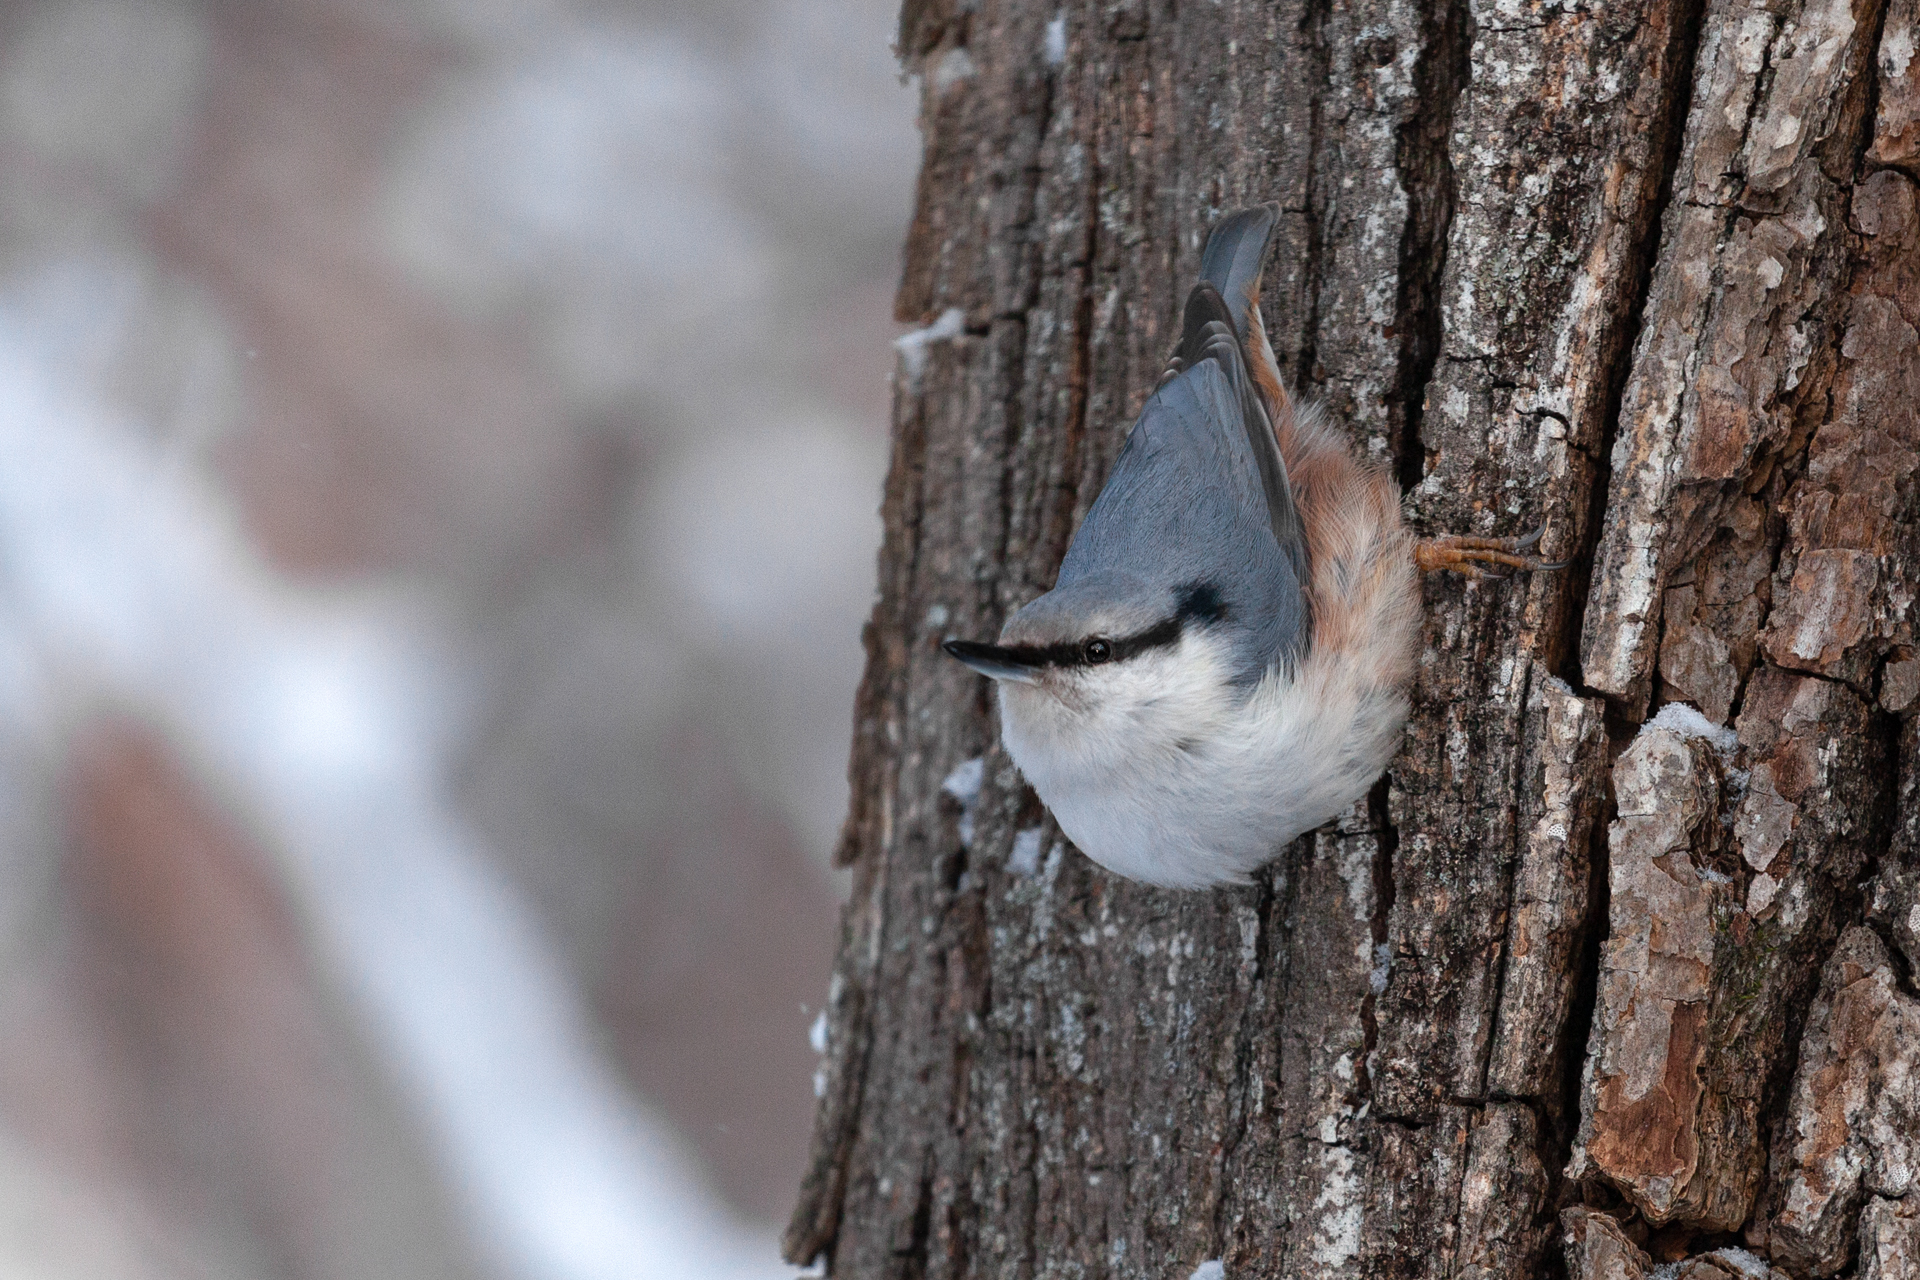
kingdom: Animalia
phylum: Chordata
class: Aves
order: Passeriformes
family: Sittidae
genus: Sitta
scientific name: Sitta europaea
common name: Eurasian nuthatch
